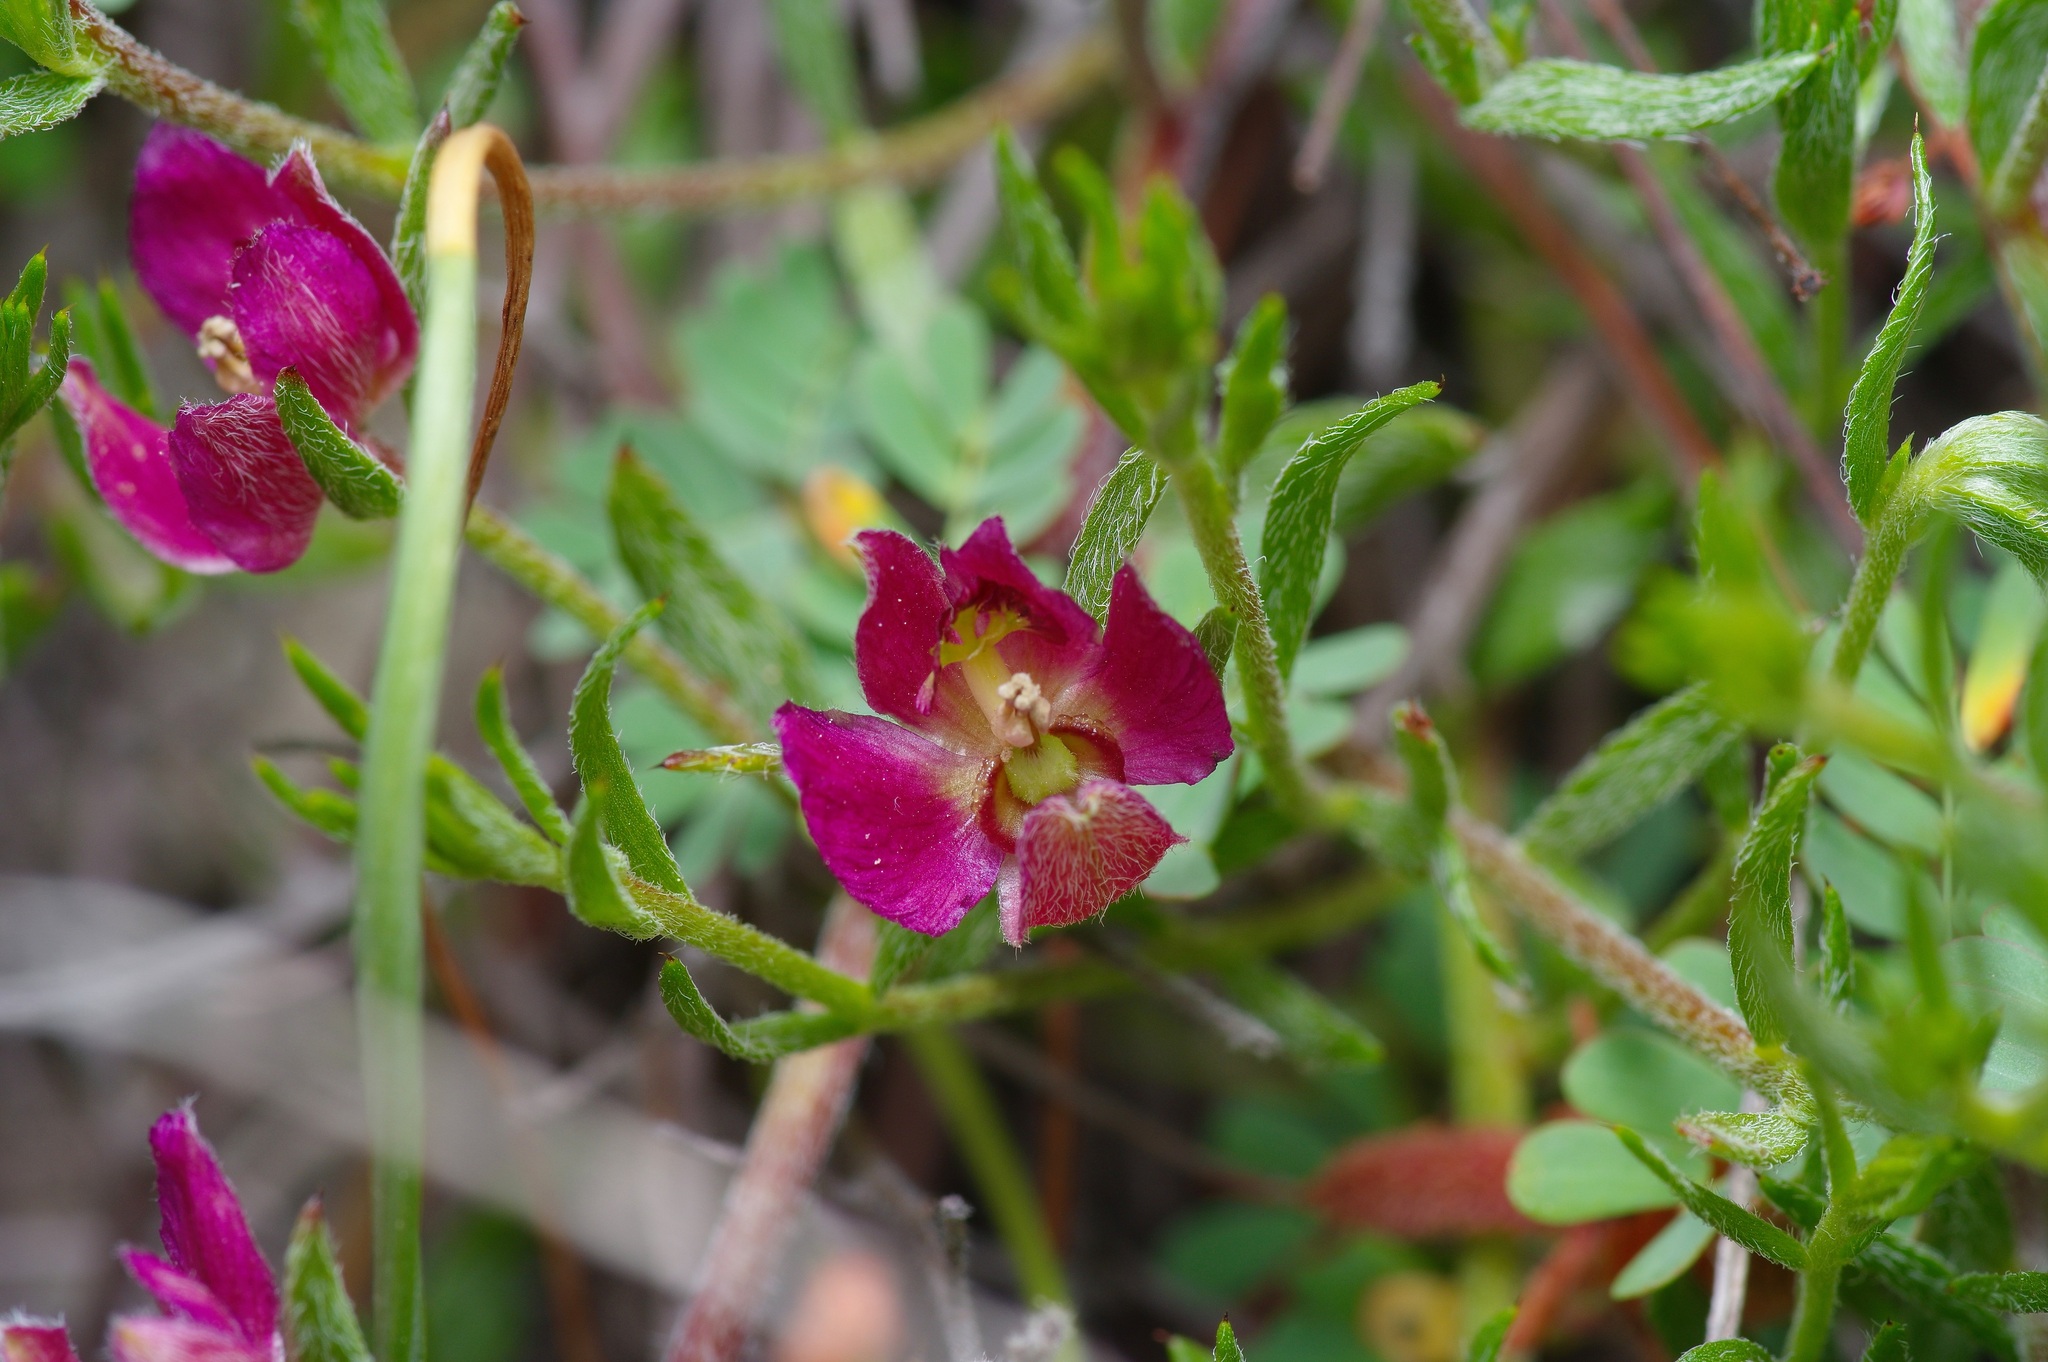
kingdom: Plantae
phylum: Tracheophyta
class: Magnoliopsida
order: Zygophyllales
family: Krameriaceae
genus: Krameria
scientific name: Krameria lanceolata
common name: Ratany
